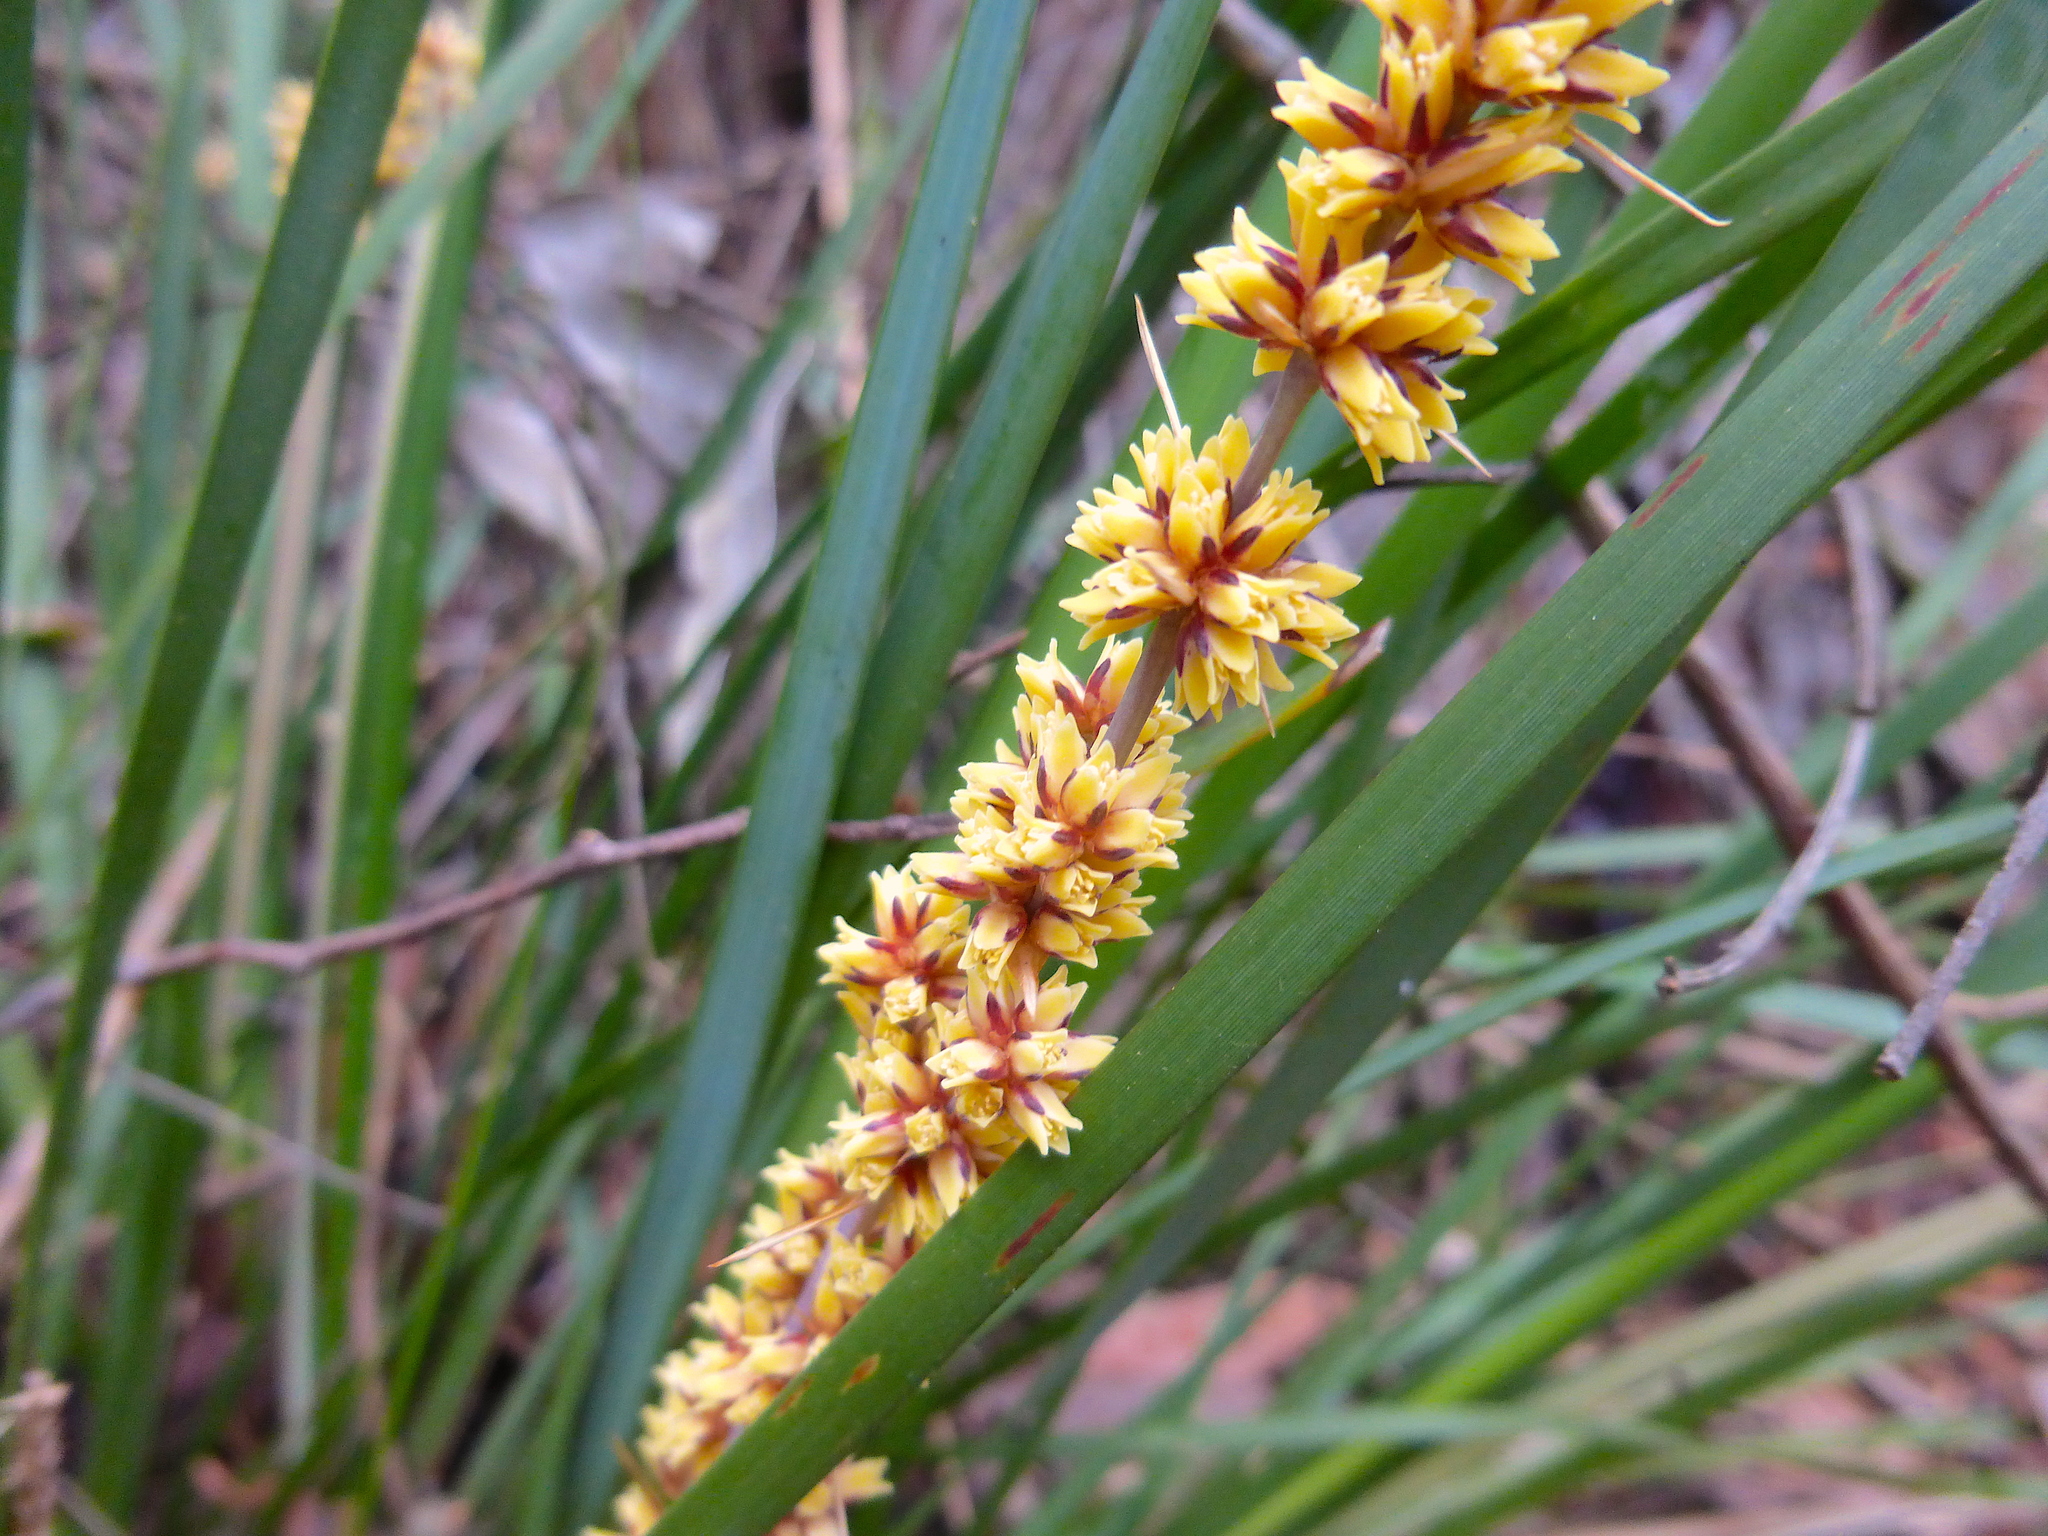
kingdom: Plantae
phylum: Tracheophyta
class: Liliopsida
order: Asparagales
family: Asparagaceae
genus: Lomandra
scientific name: Lomandra longifolia
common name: Longleaf mat-rush
